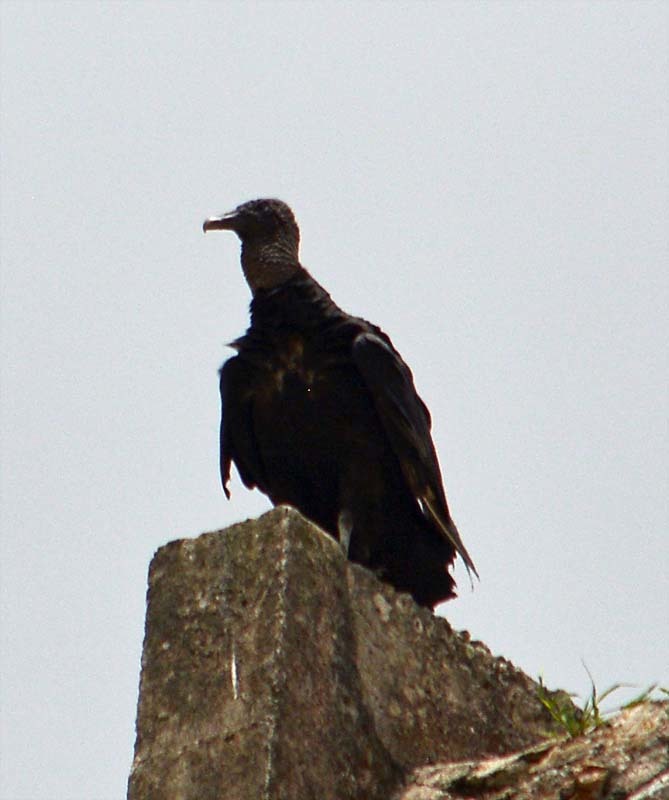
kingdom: Animalia
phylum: Chordata
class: Aves
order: Accipitriformes
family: Cathartidae
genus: Coragyps
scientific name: Coragyps atratus
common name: Black vulture
